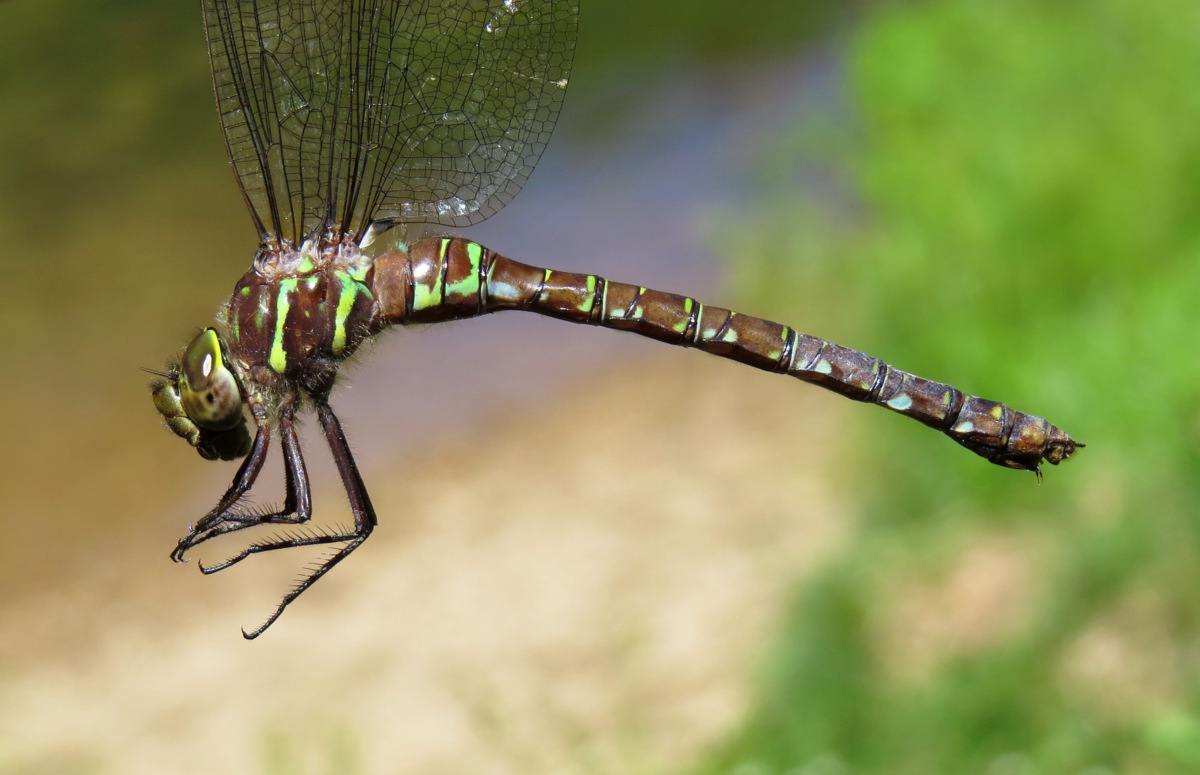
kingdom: Animalia
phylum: Arthropoda
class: Insecta
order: Odonata
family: Aeshnidae
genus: Aeshna
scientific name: Aeshna umbrosa
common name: Shadow darner
